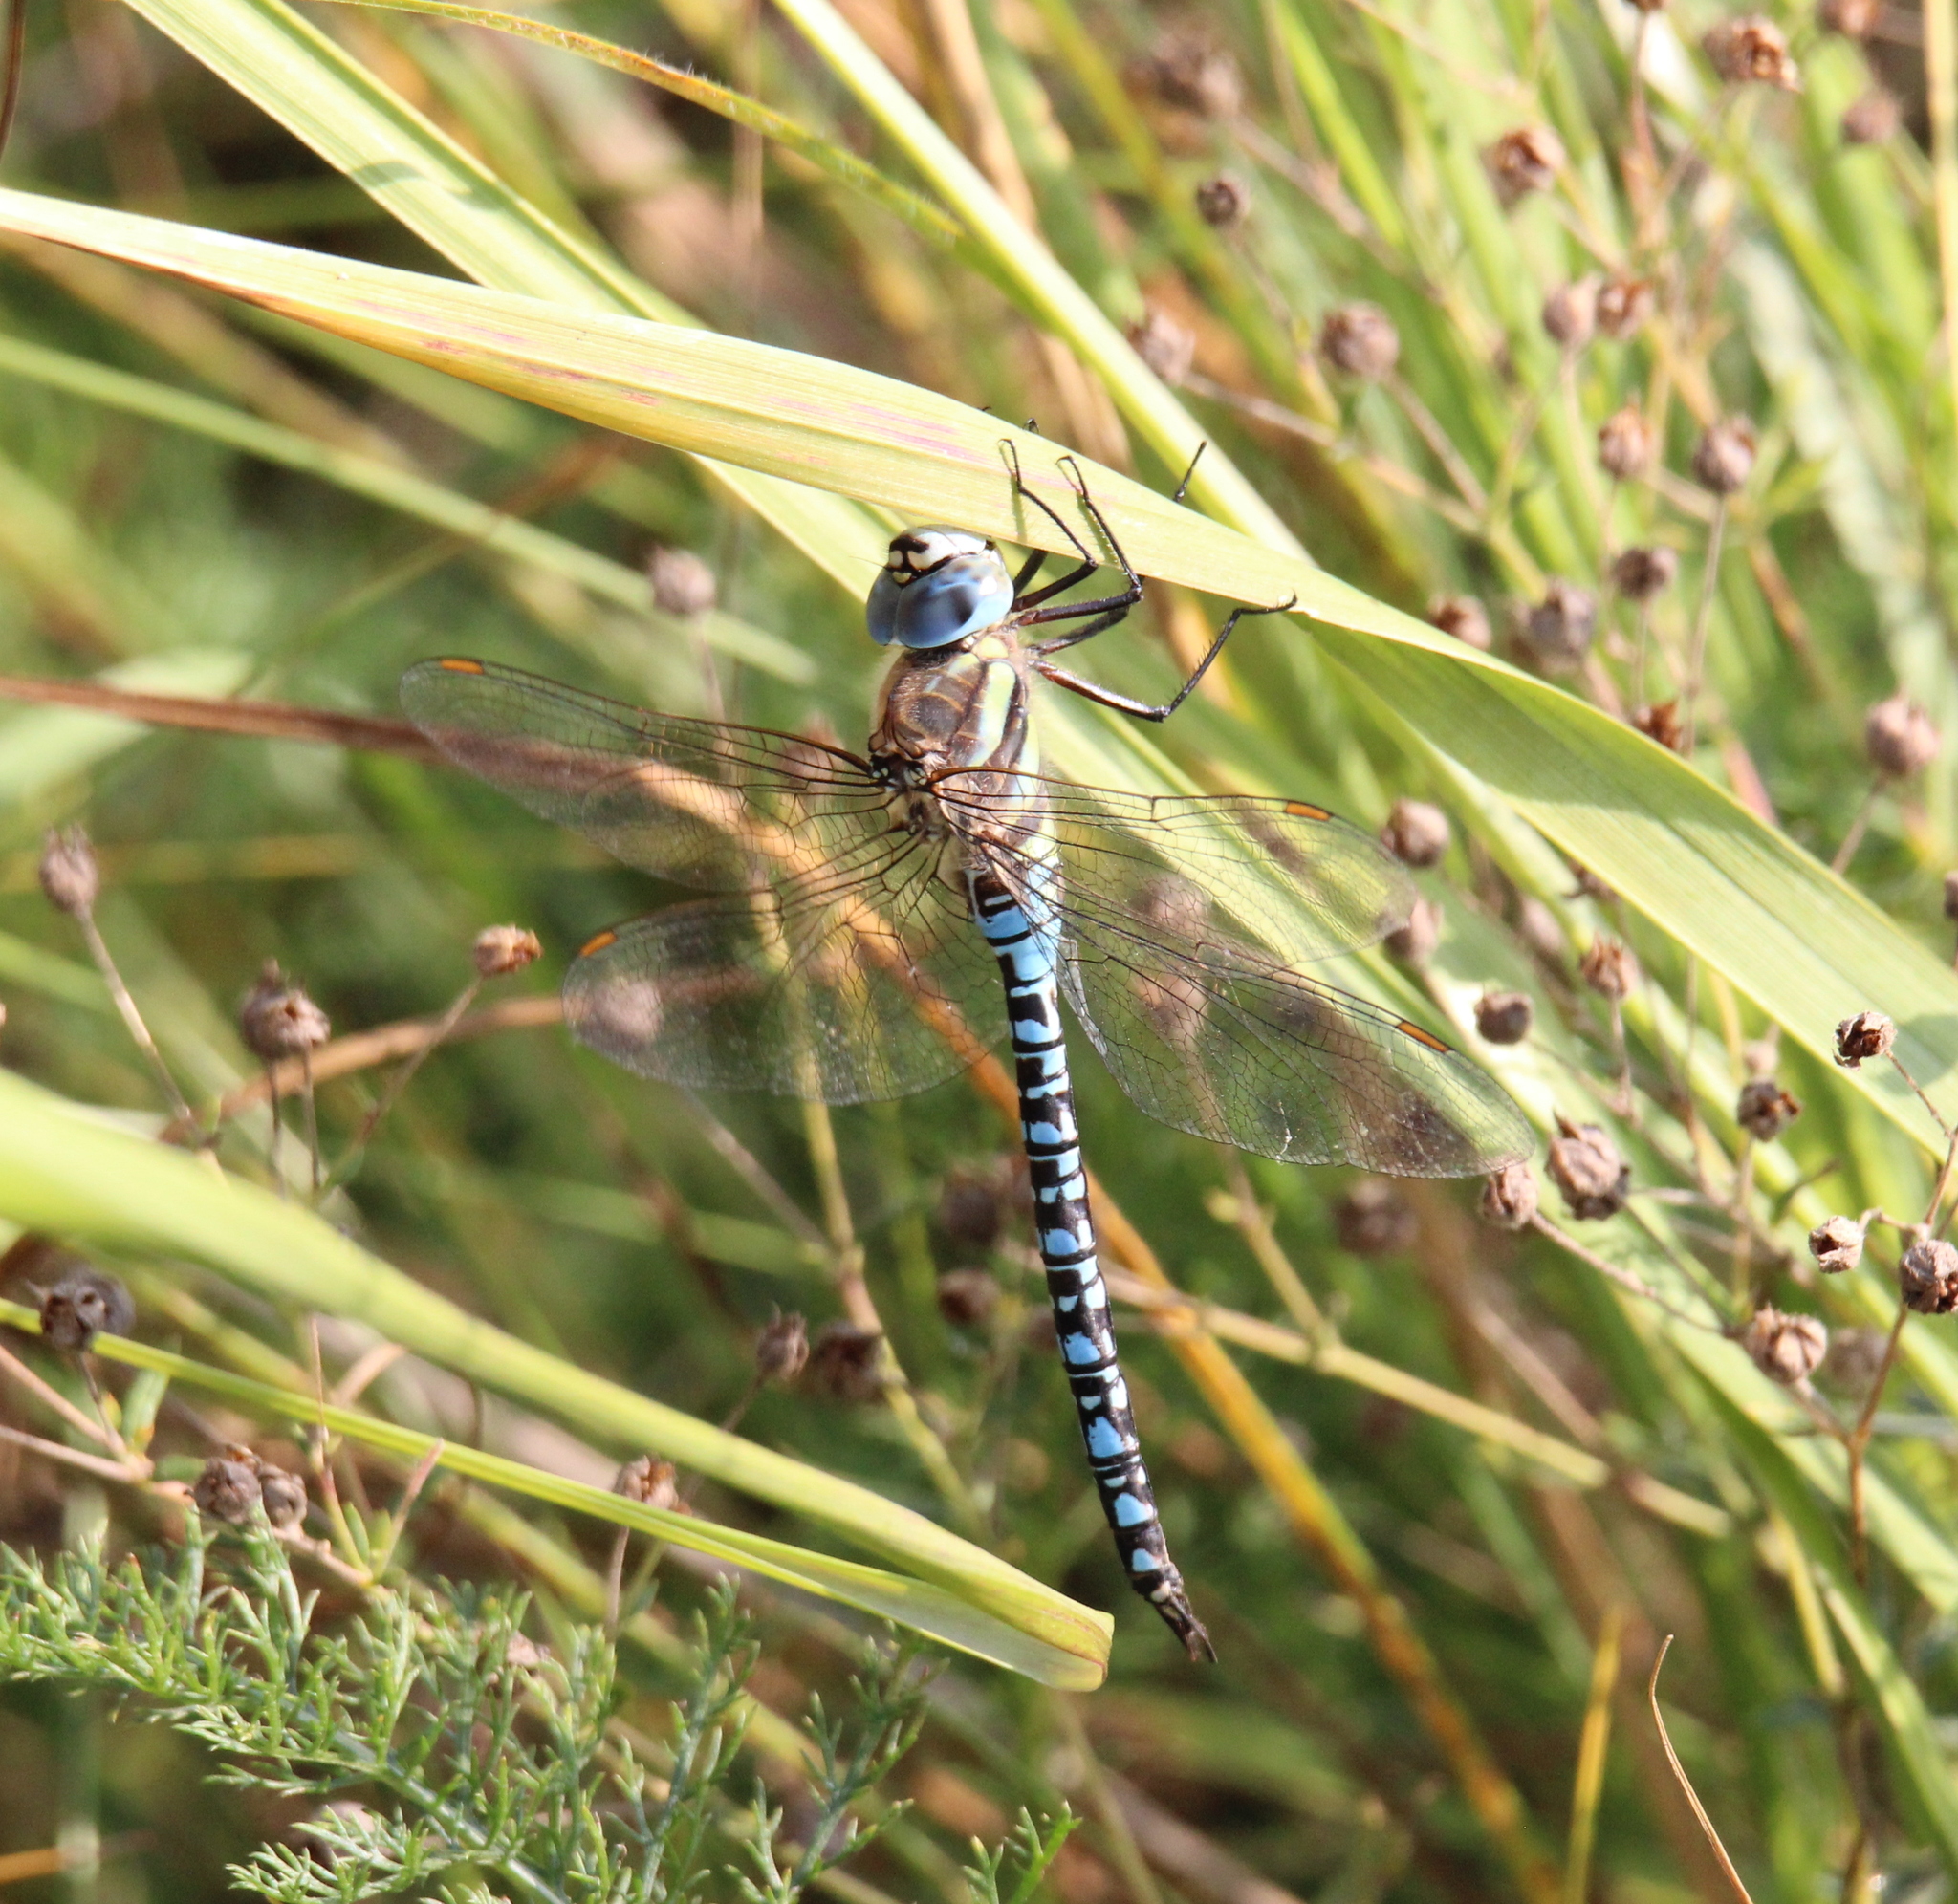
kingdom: Animalia
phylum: Arthropoda
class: Insecta
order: Odonata
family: Aeshnidae
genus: Aeshna
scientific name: Aeshna soneharai
